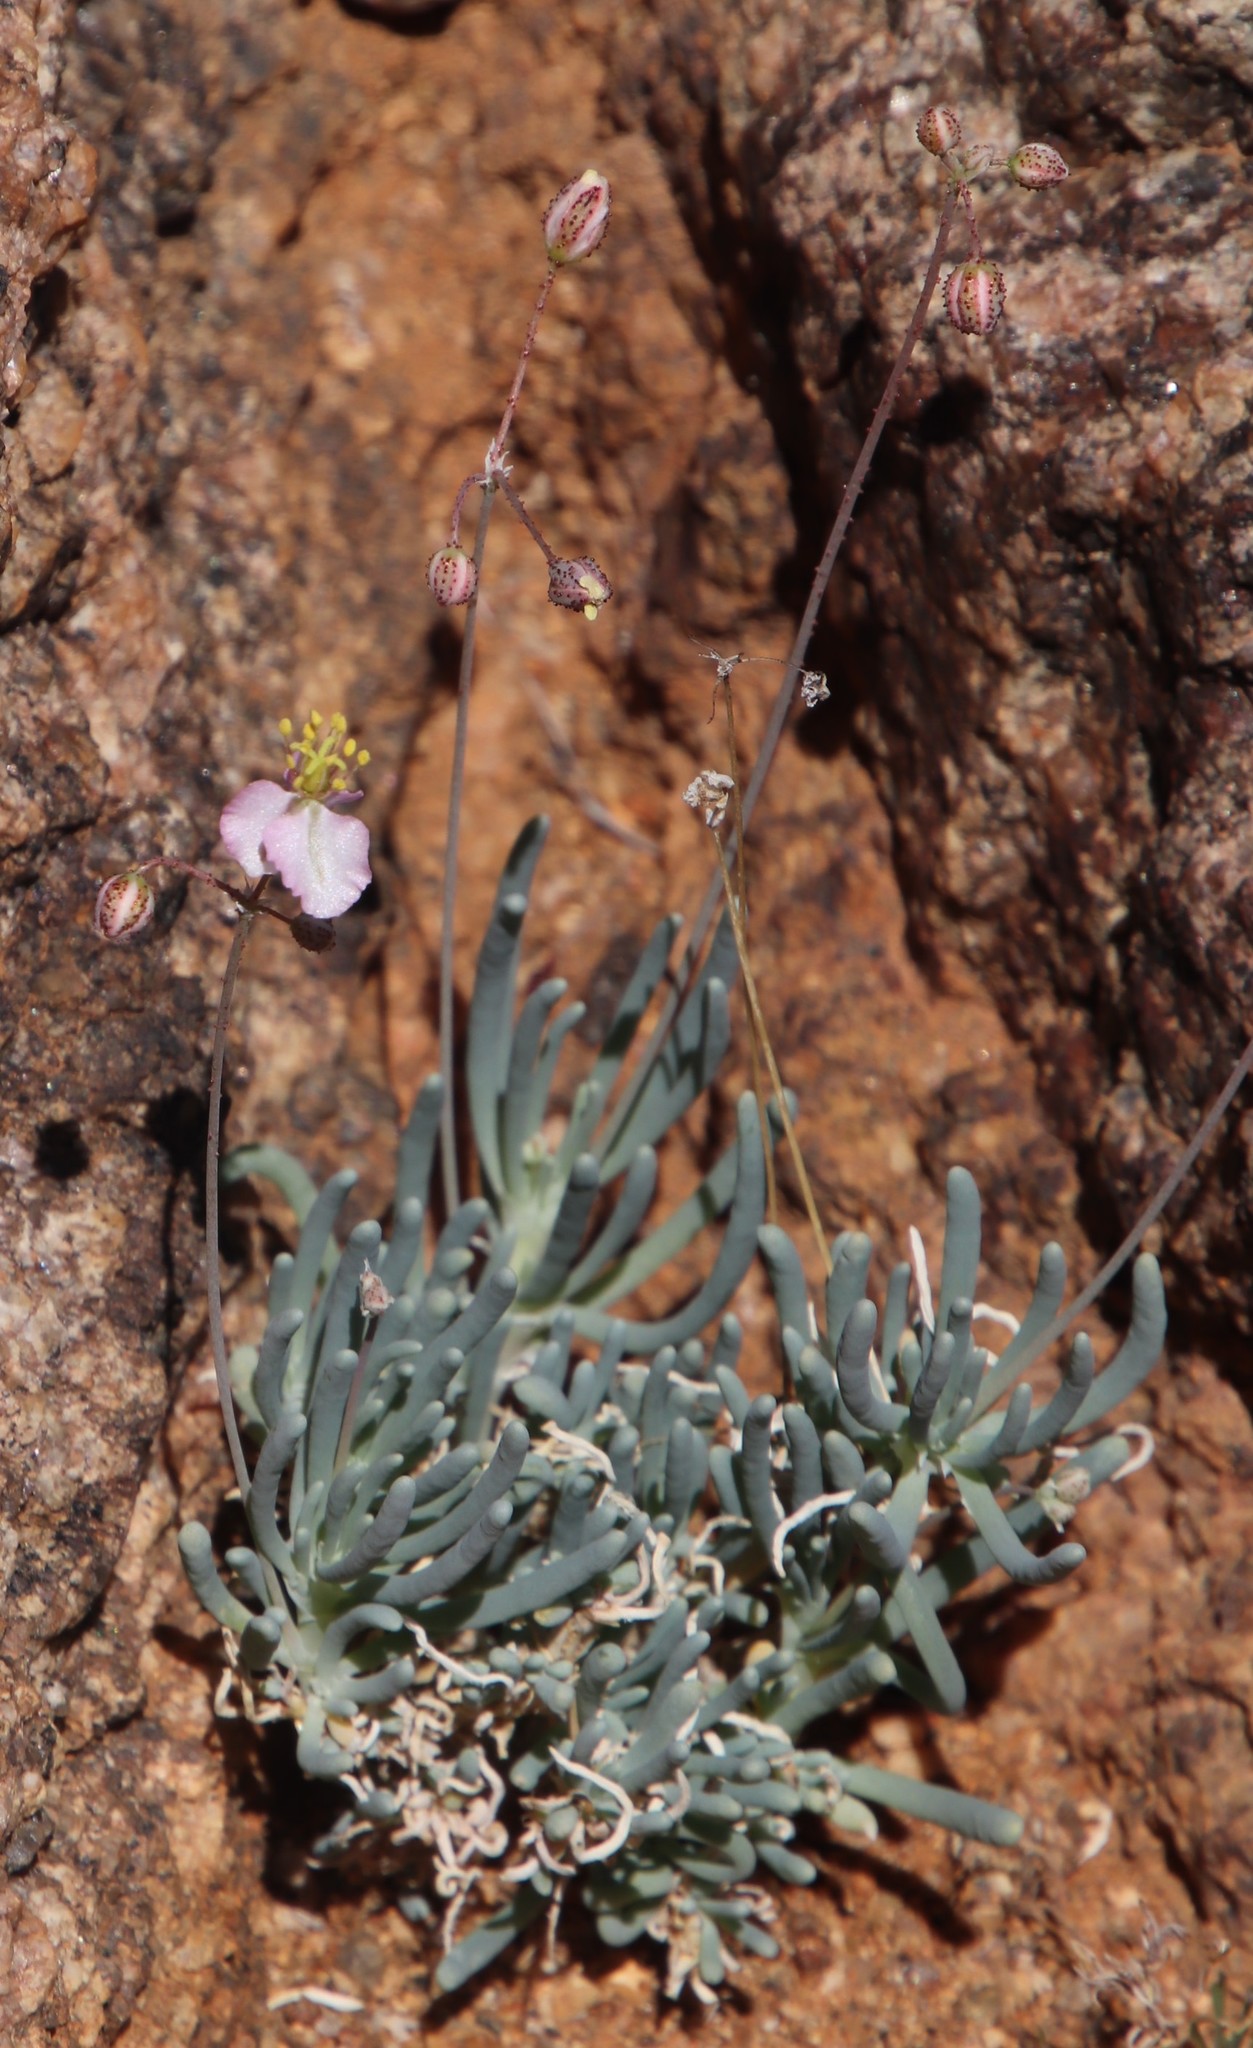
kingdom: Plantae
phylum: Tracheophyta
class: Magnoliopsida
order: Caryophyllales
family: Kewaceae
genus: Kewa
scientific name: Kewa salsoloides
